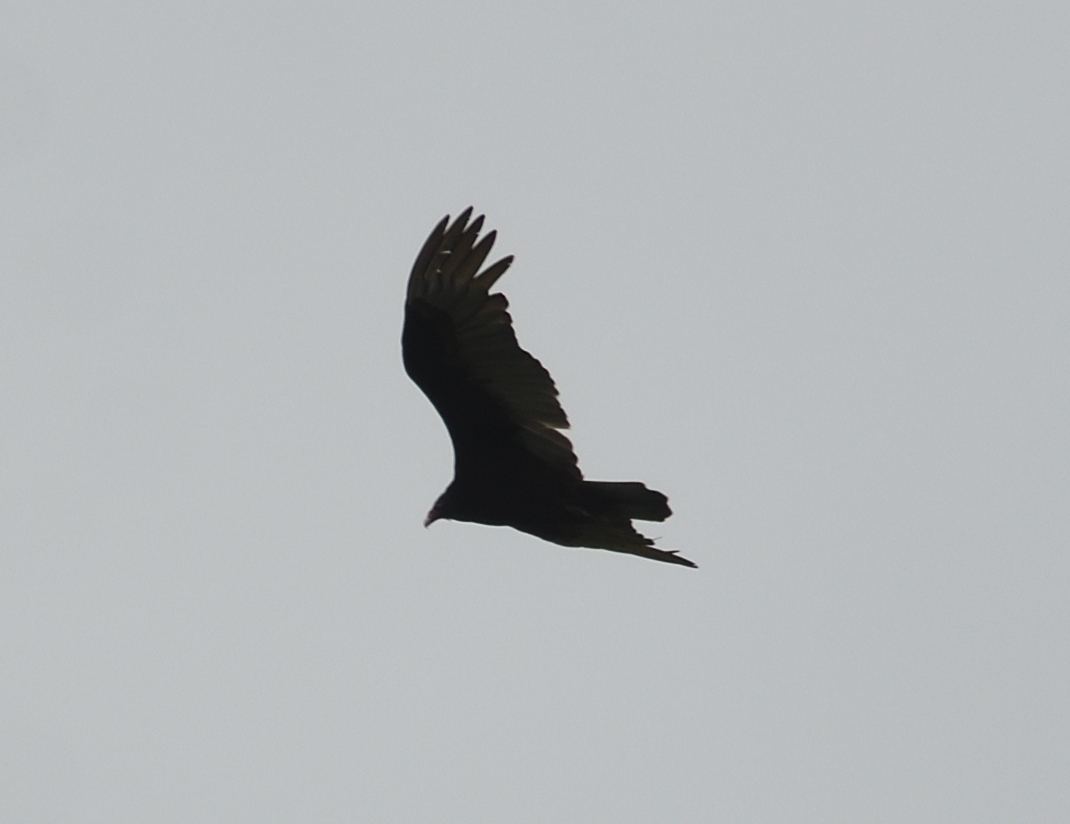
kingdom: Animalia
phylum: Chordata
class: Aves
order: Accipitriformes
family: Cathartidae
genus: Cathartes
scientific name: Cathartes aura
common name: Turkey vulture
